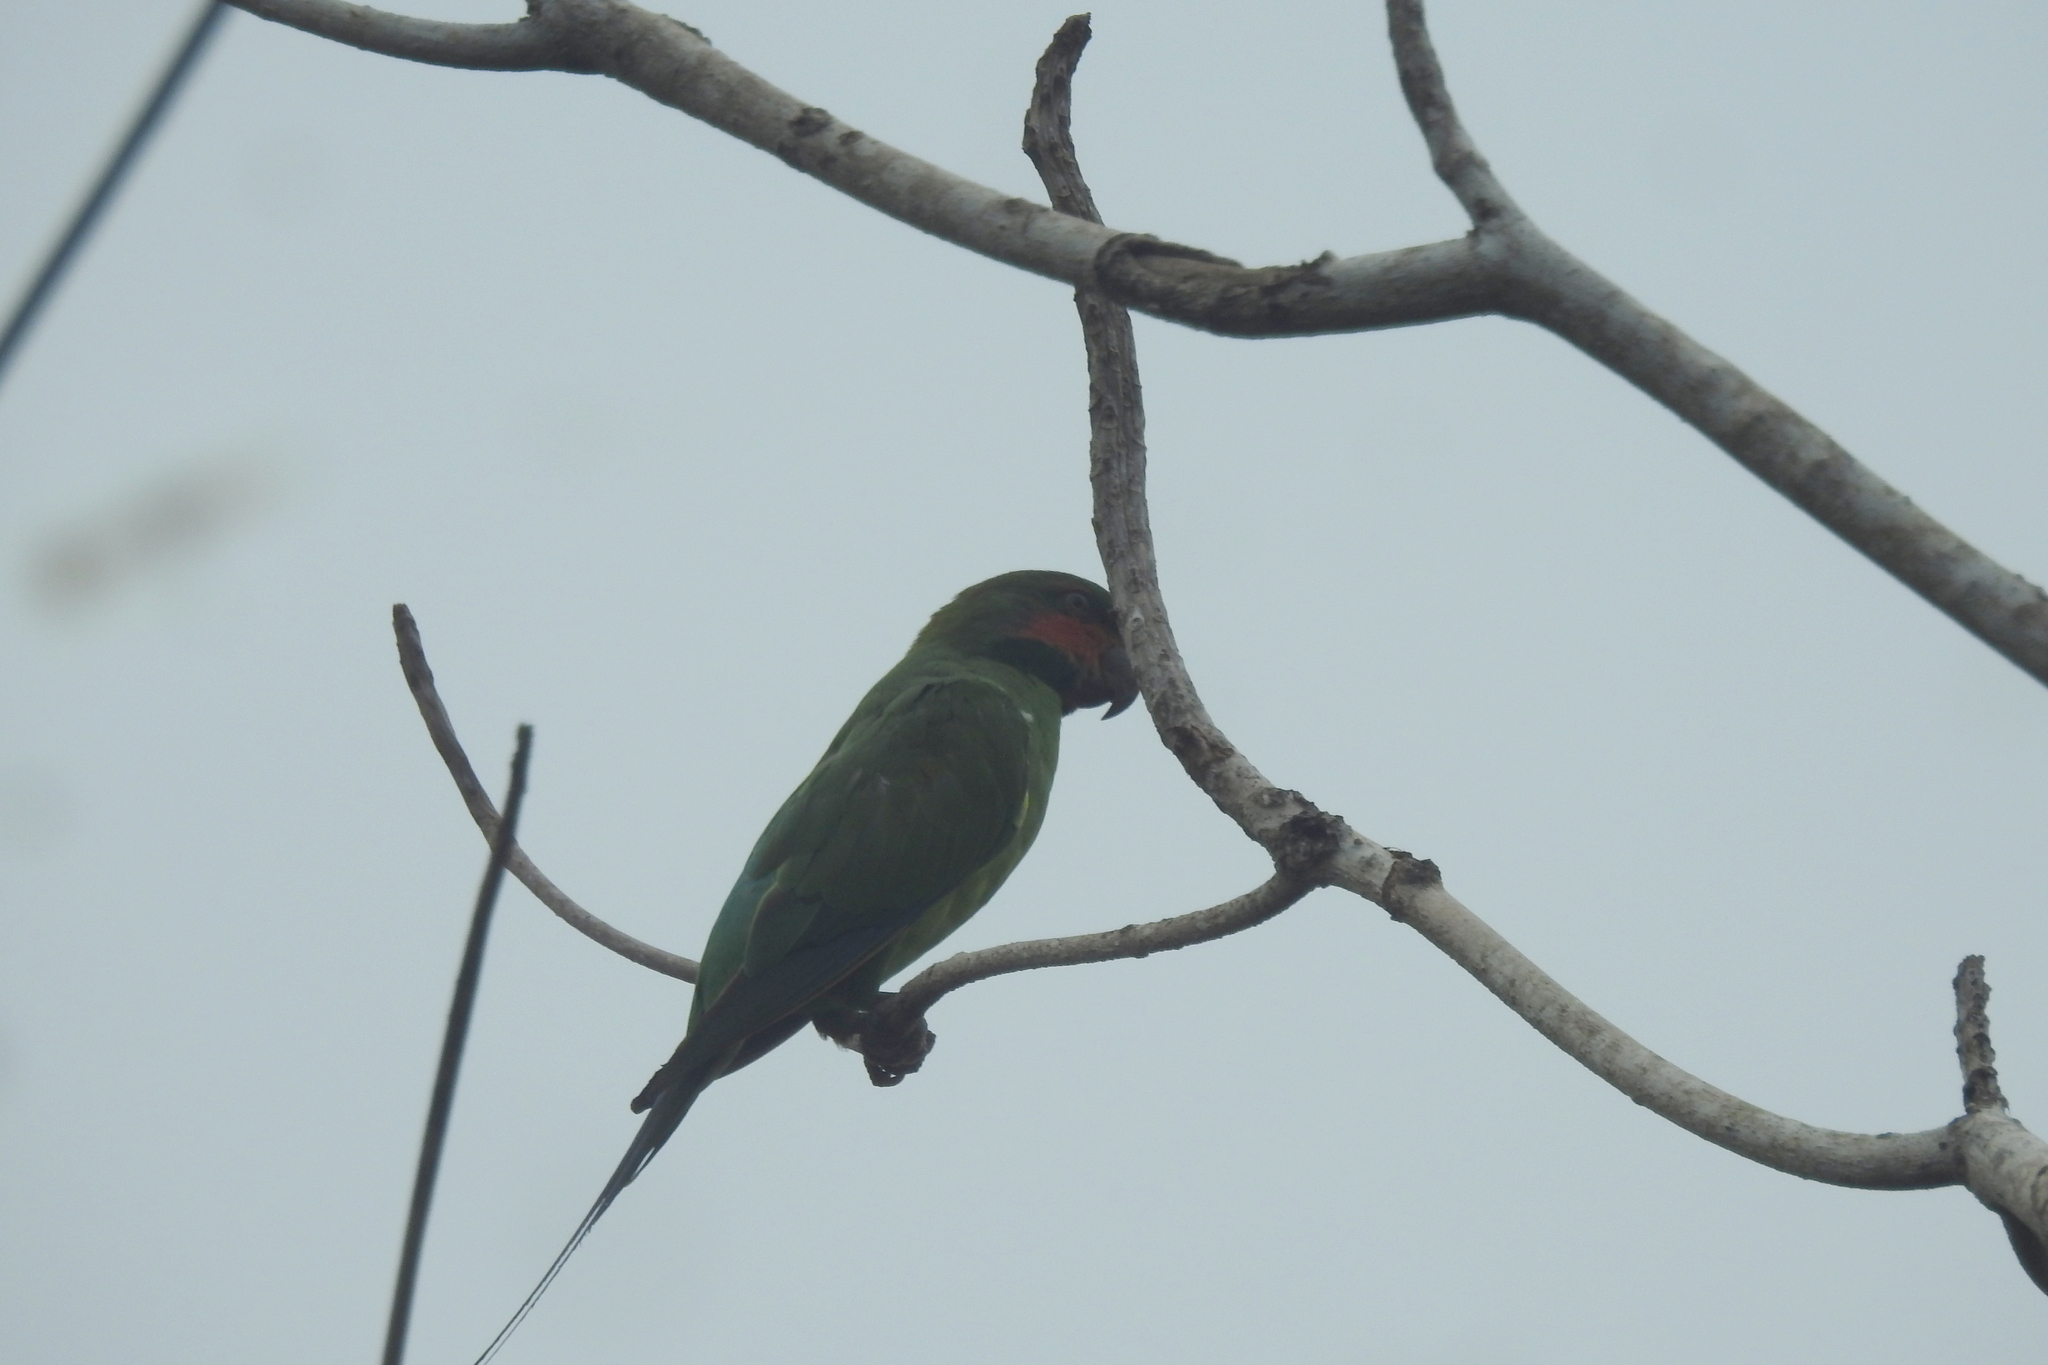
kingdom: Animalia
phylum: Chordata
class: Aves
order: Psittaciformes
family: Psittacidae
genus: Psittacula
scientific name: Psittacula longicauda
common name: Long-tailed parakeet
